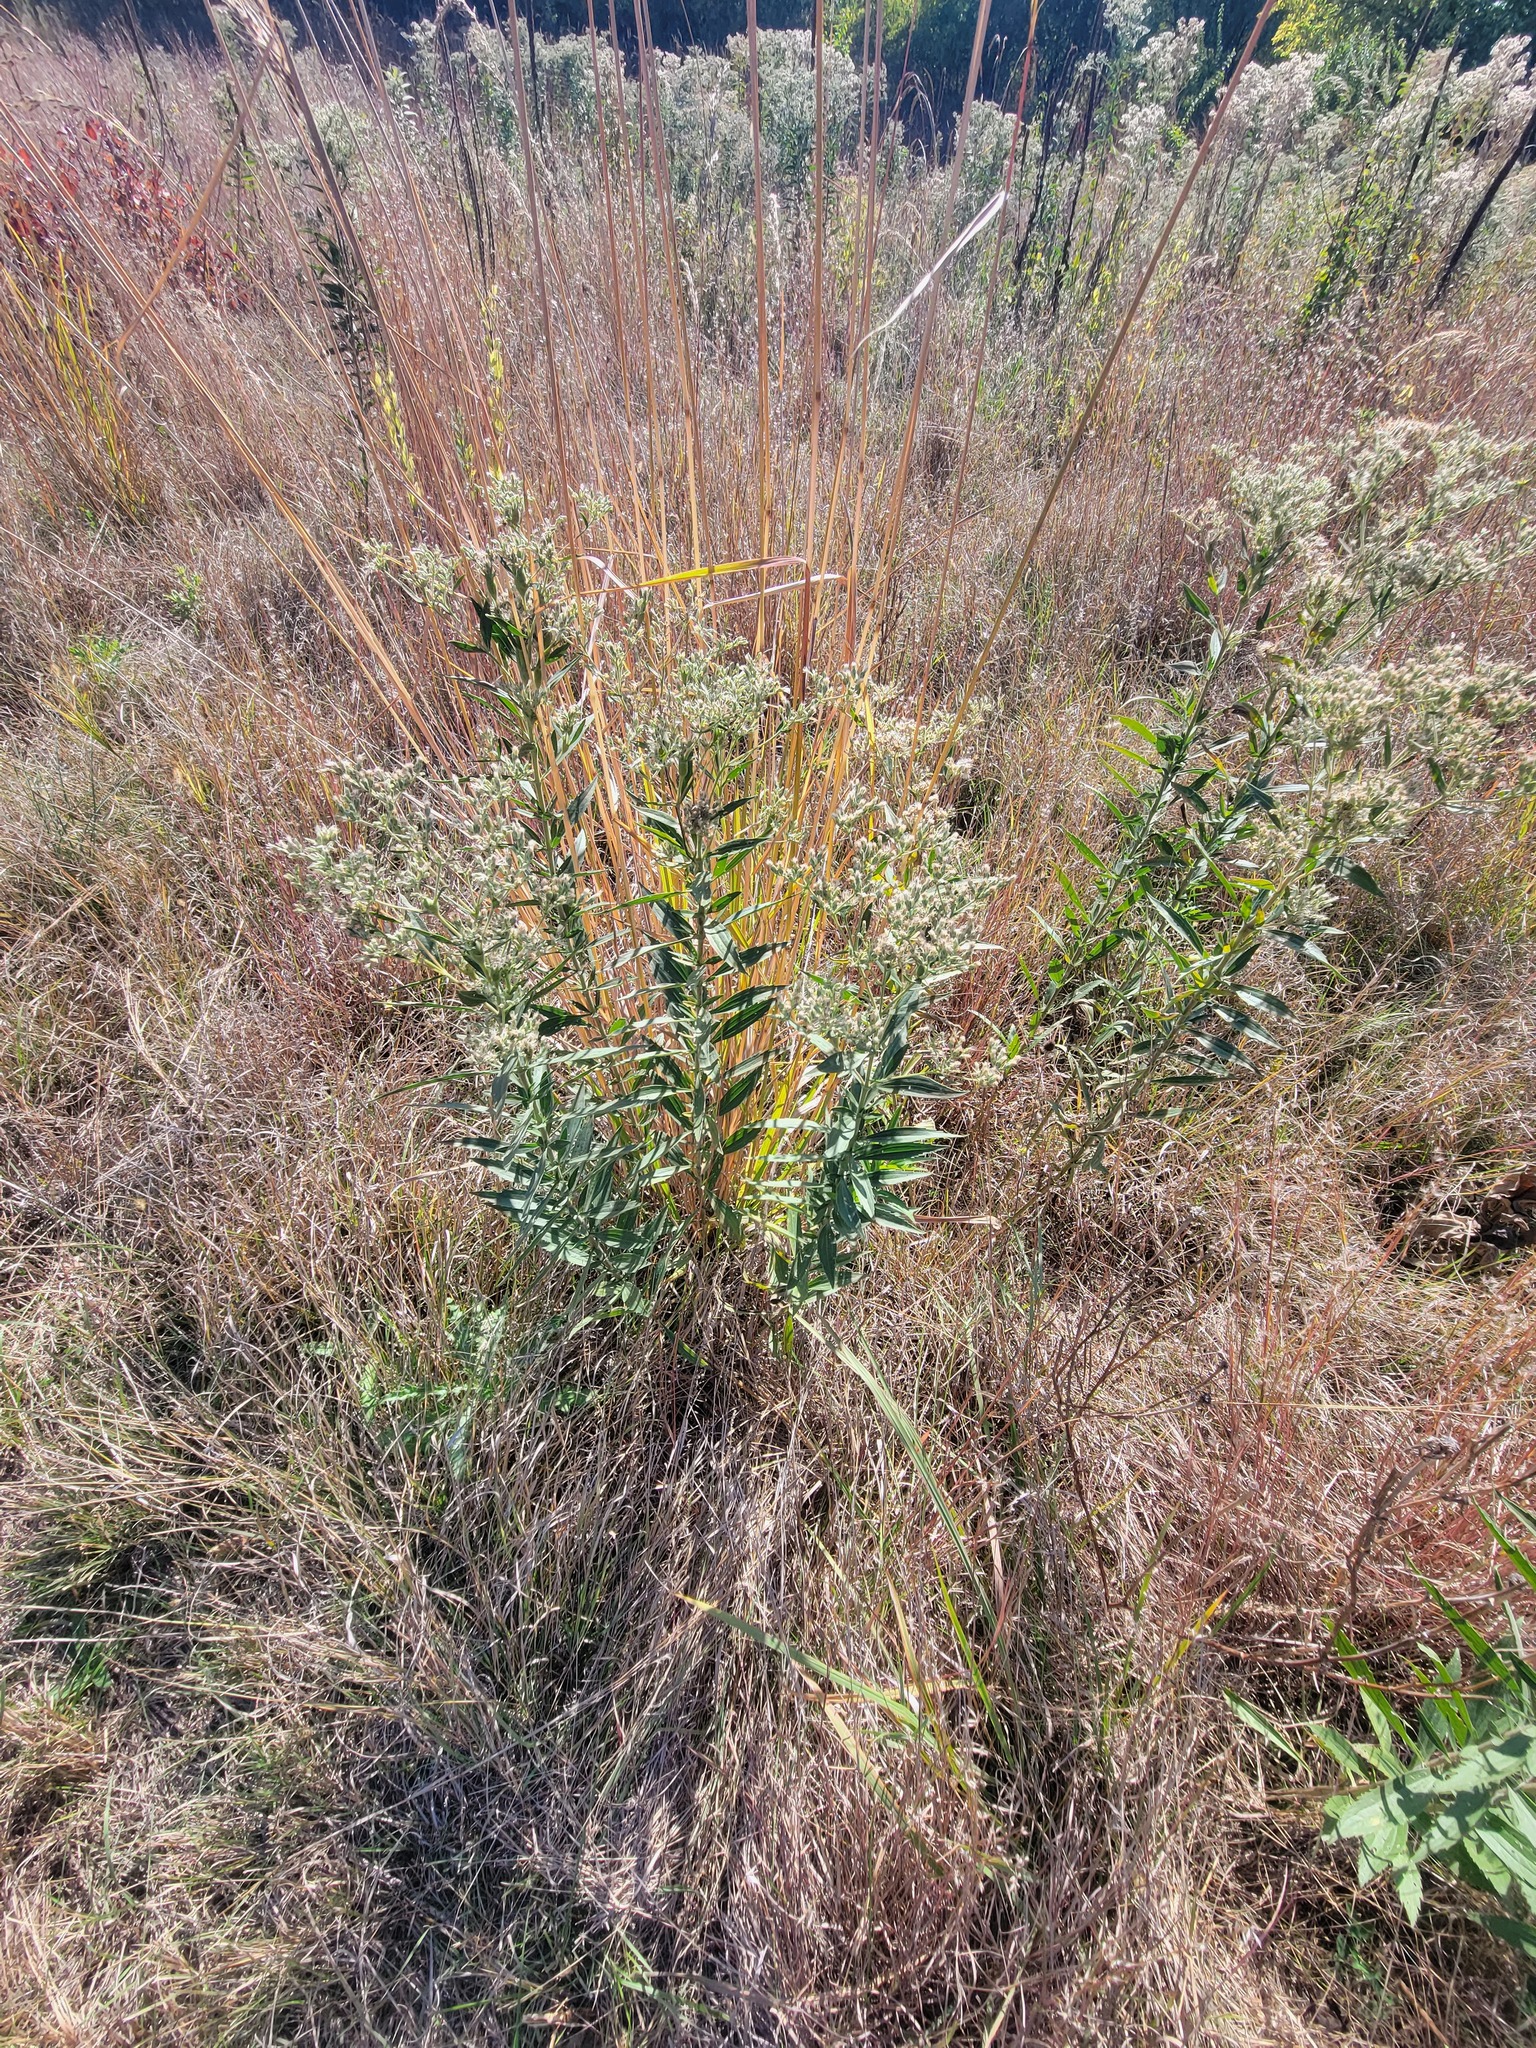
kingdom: Plantae
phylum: Tracheophyta
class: Magnoliopsida
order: Asterales
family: Asteraceae
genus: Eupatorium
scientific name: Eupatorium altissimum
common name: Tall thoroughwort
